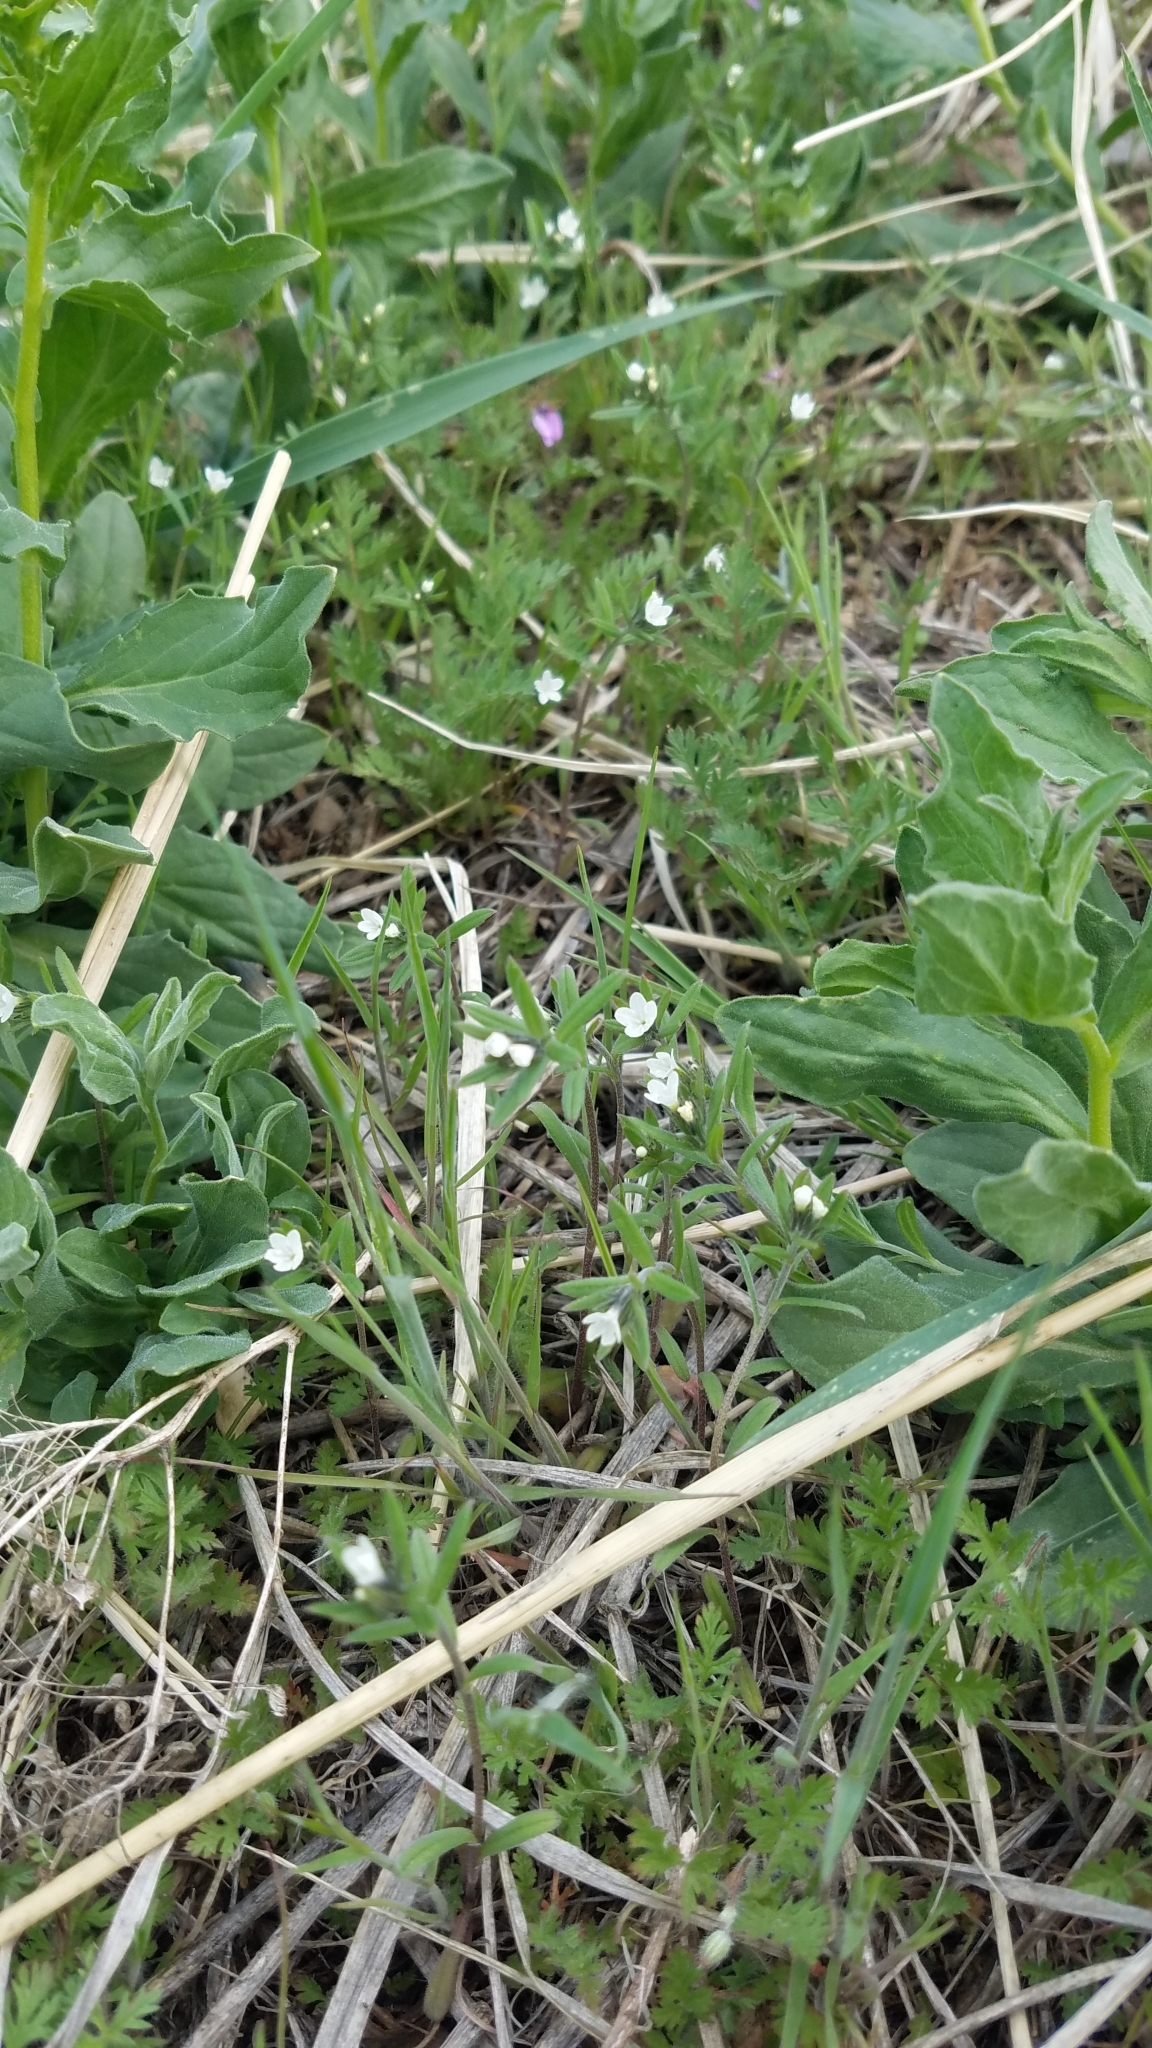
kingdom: Plantae
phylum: Tracheophyta
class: Magnoliopsida
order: Boraginales
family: Boraginaceae
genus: Buglossoides
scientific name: Buglossoides arvensis
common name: Corn gromwell
